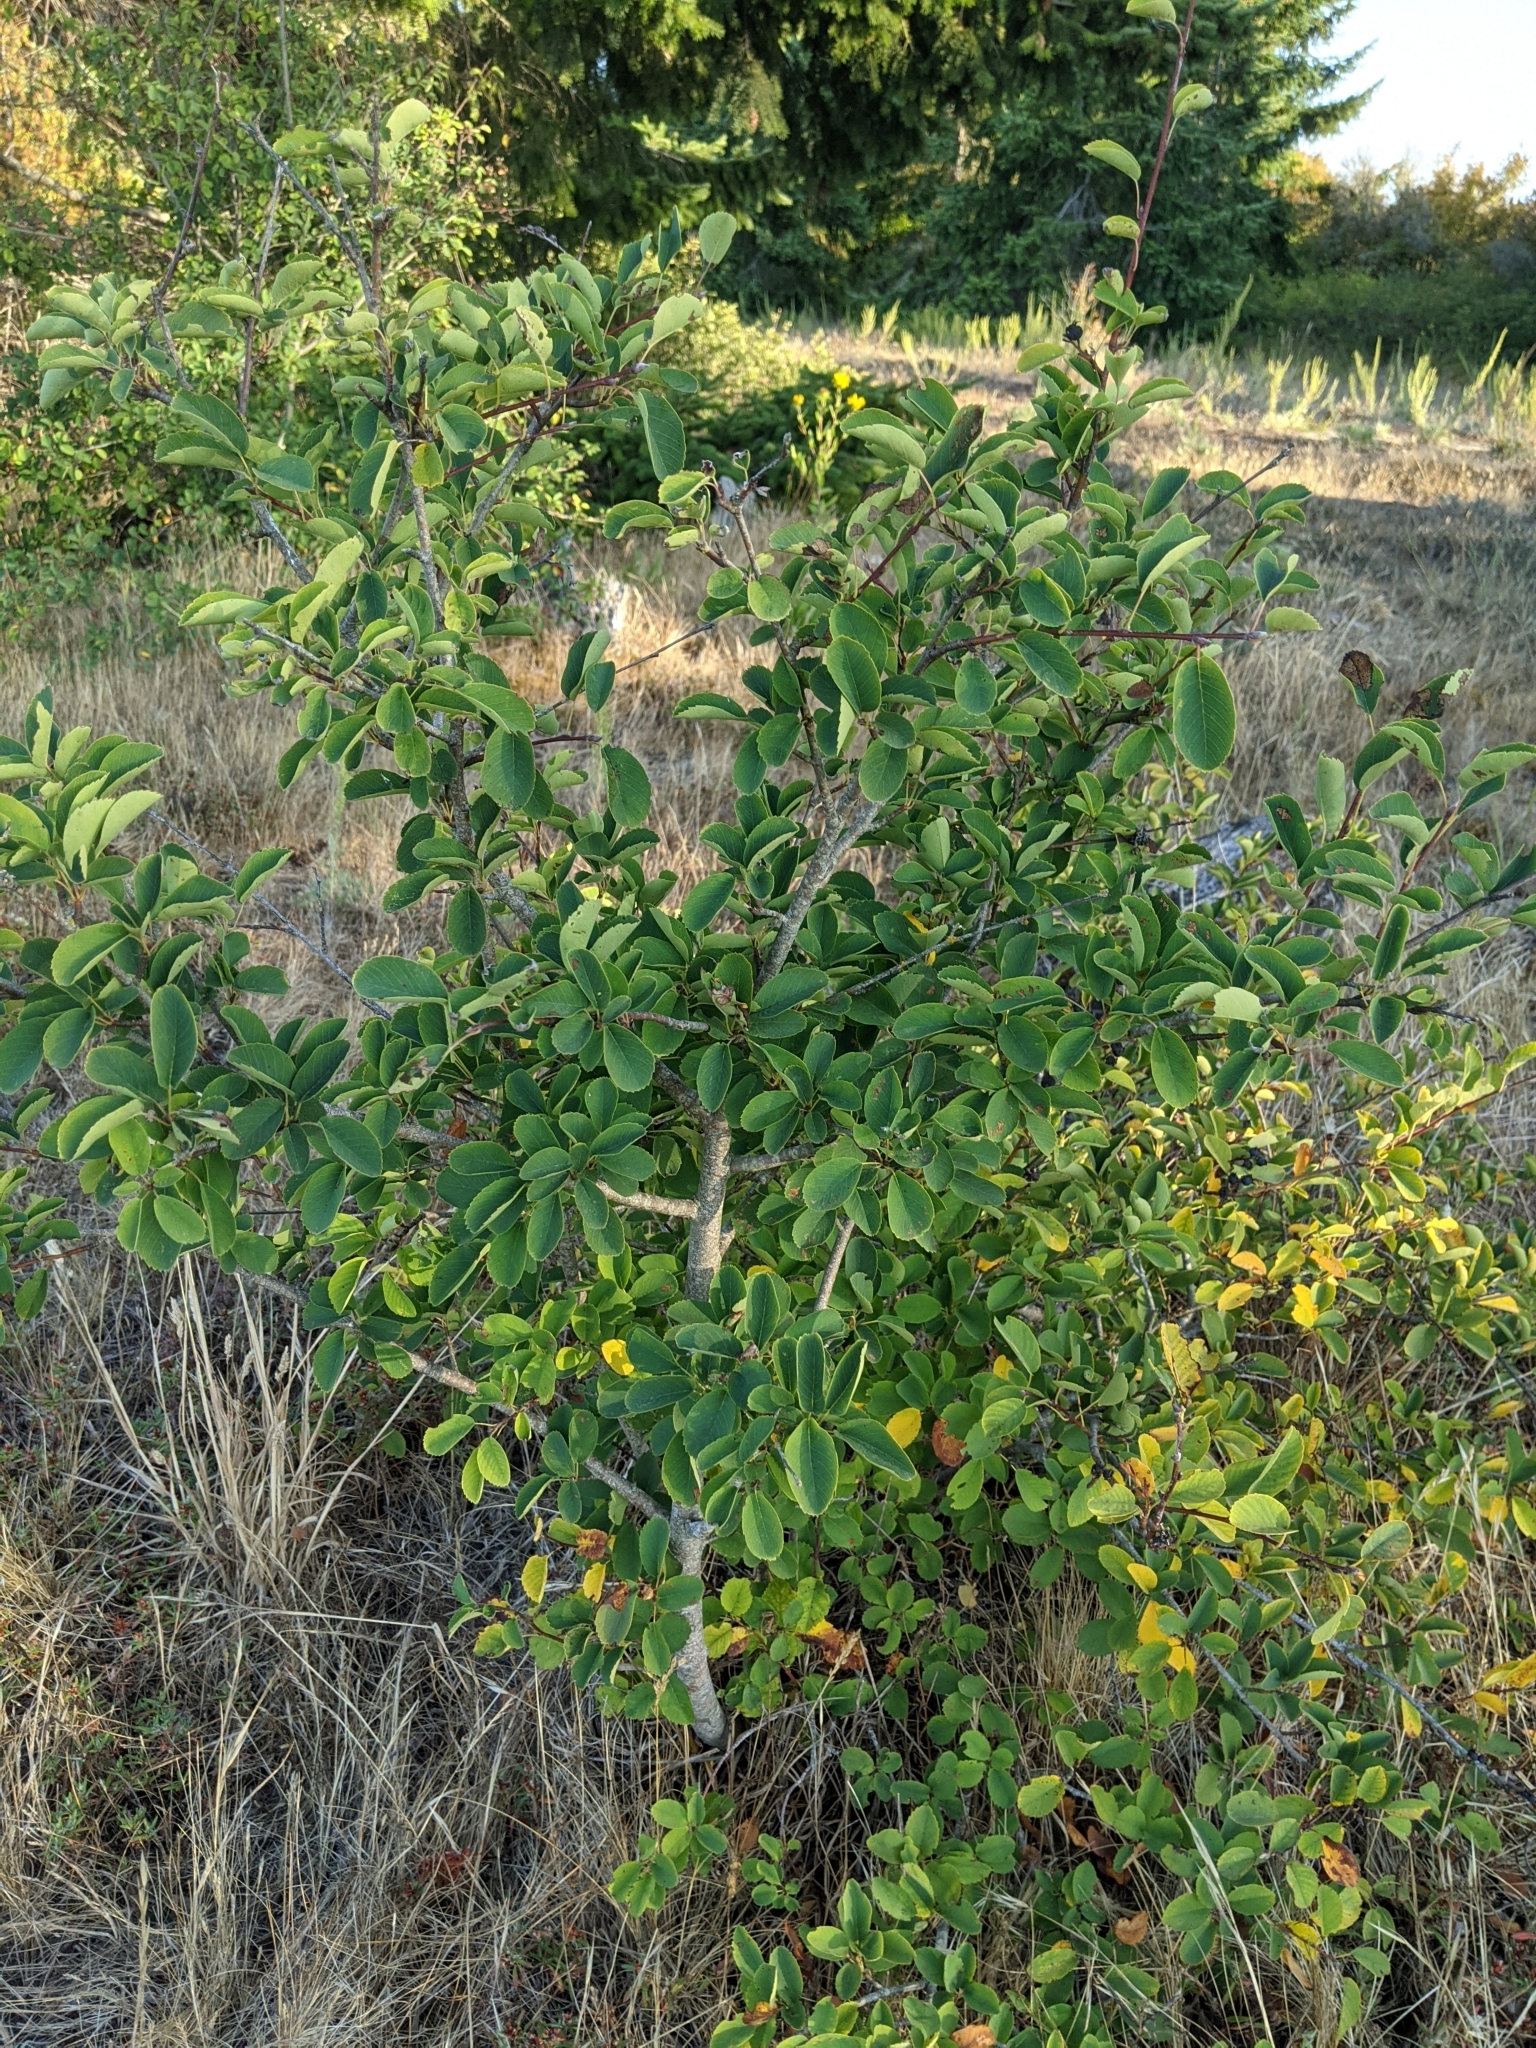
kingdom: Plantae
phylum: Tracheophyta
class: Magnoliopsida
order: Rosales
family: Rosaceae
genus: Amelanchier
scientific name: Amelanchier alnifolia
